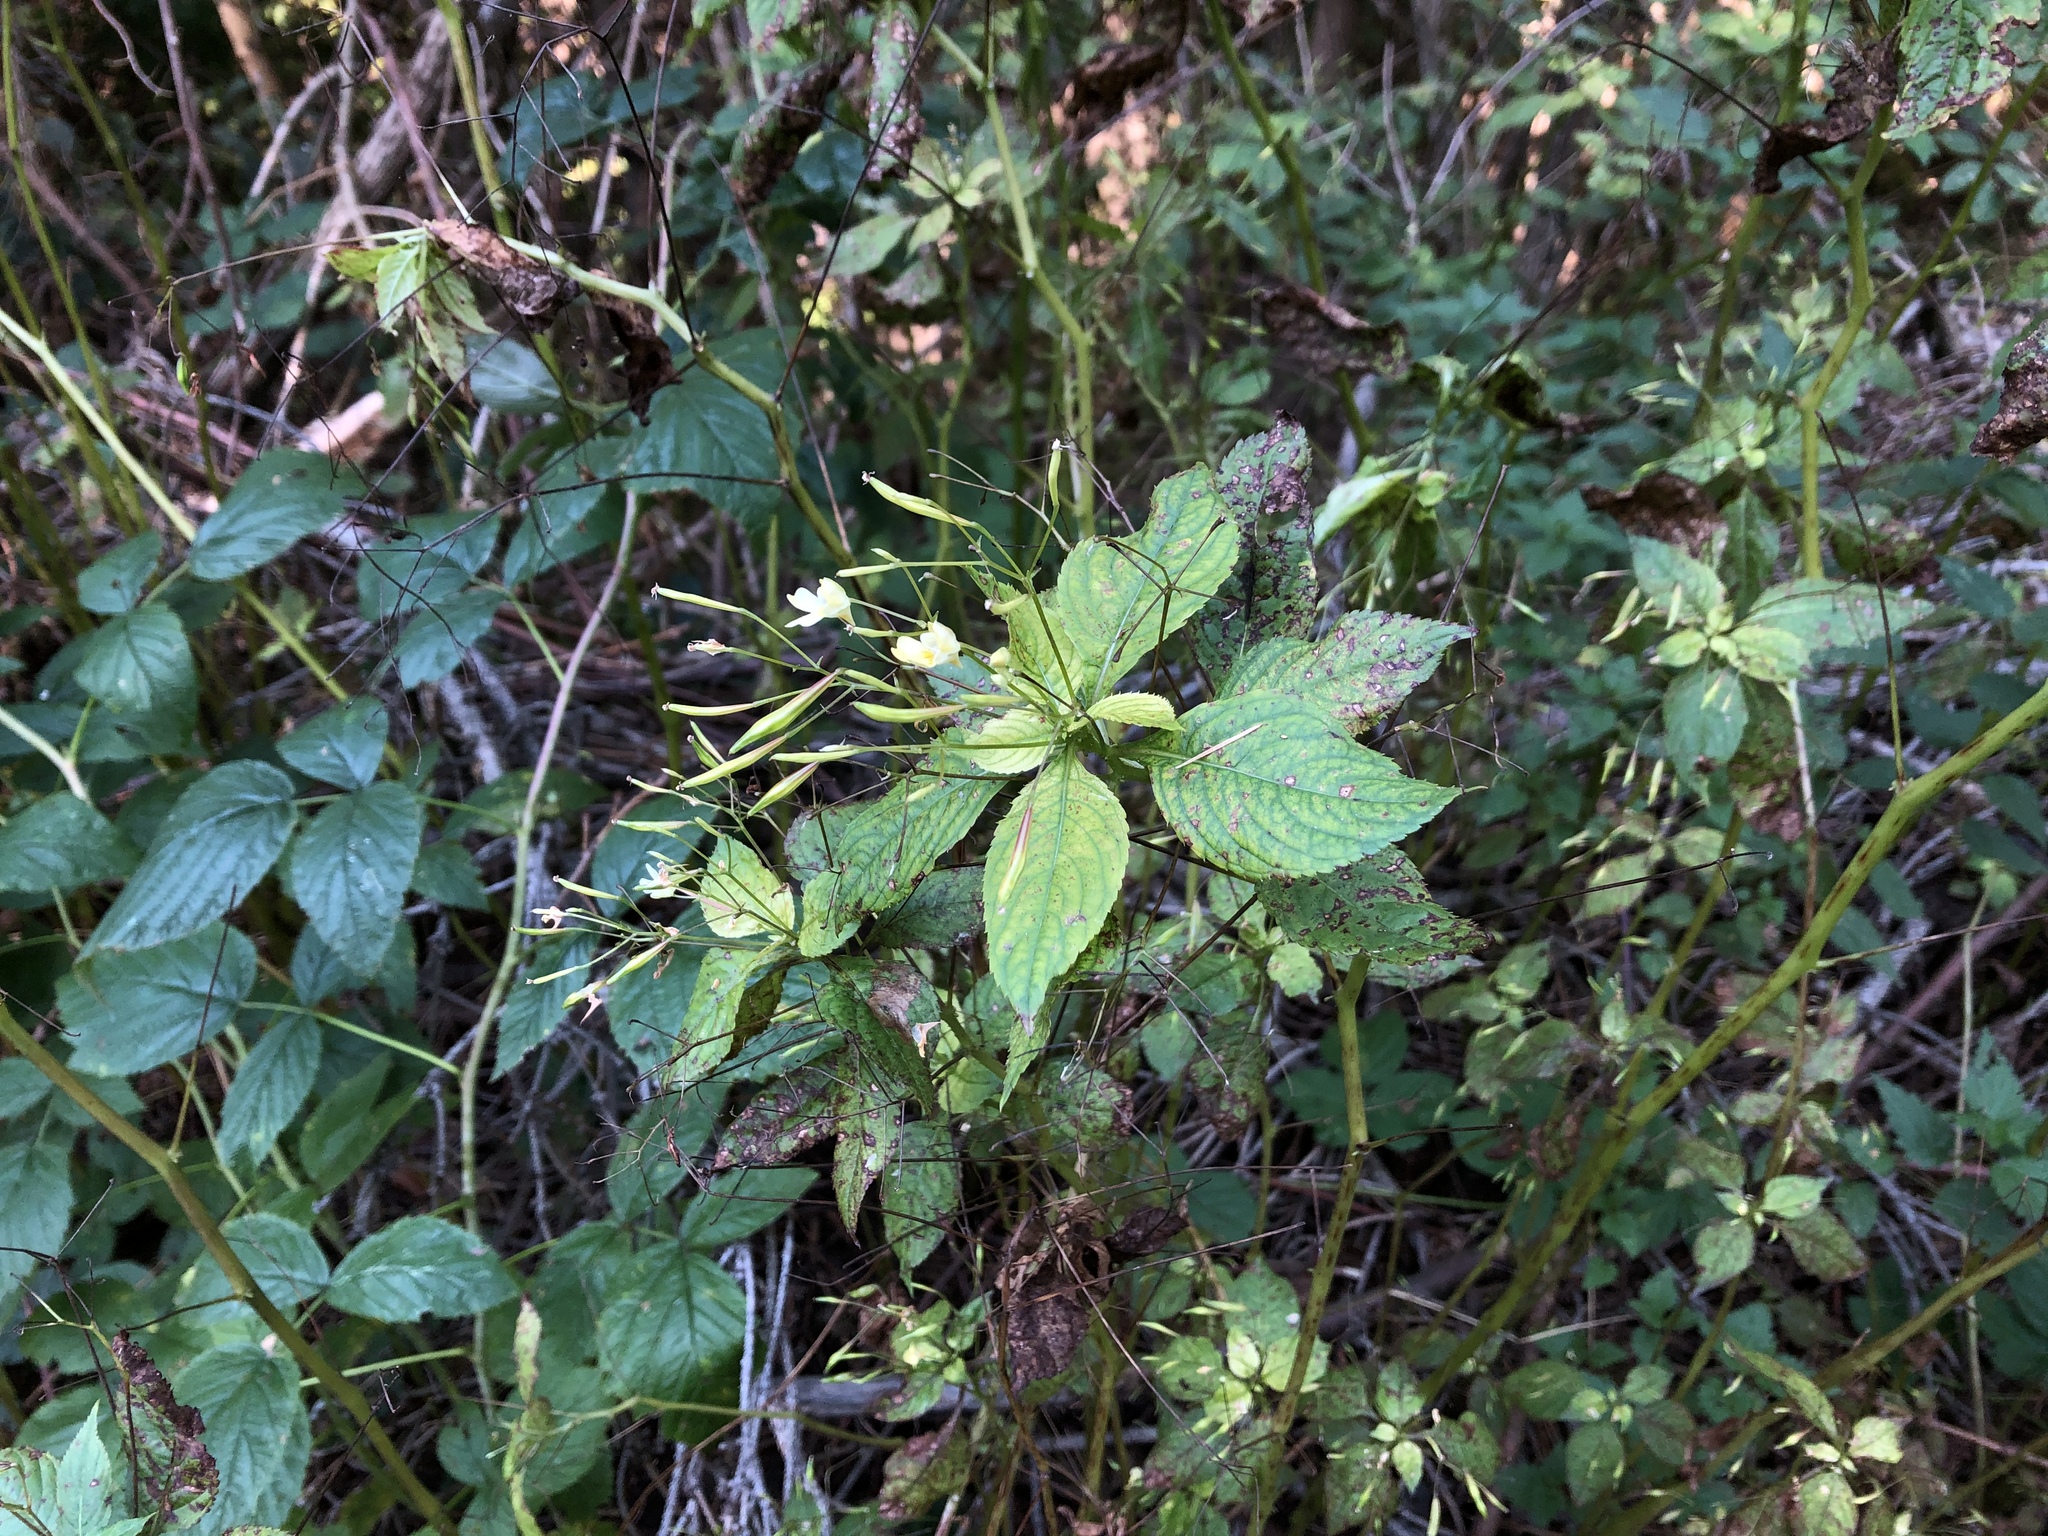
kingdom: Plantae
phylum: Tracheophyta
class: Magnoliopsida
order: Ericales
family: Balsaminaceae
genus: Impatiens
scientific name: Impatiens parviflora
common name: Small balsam
